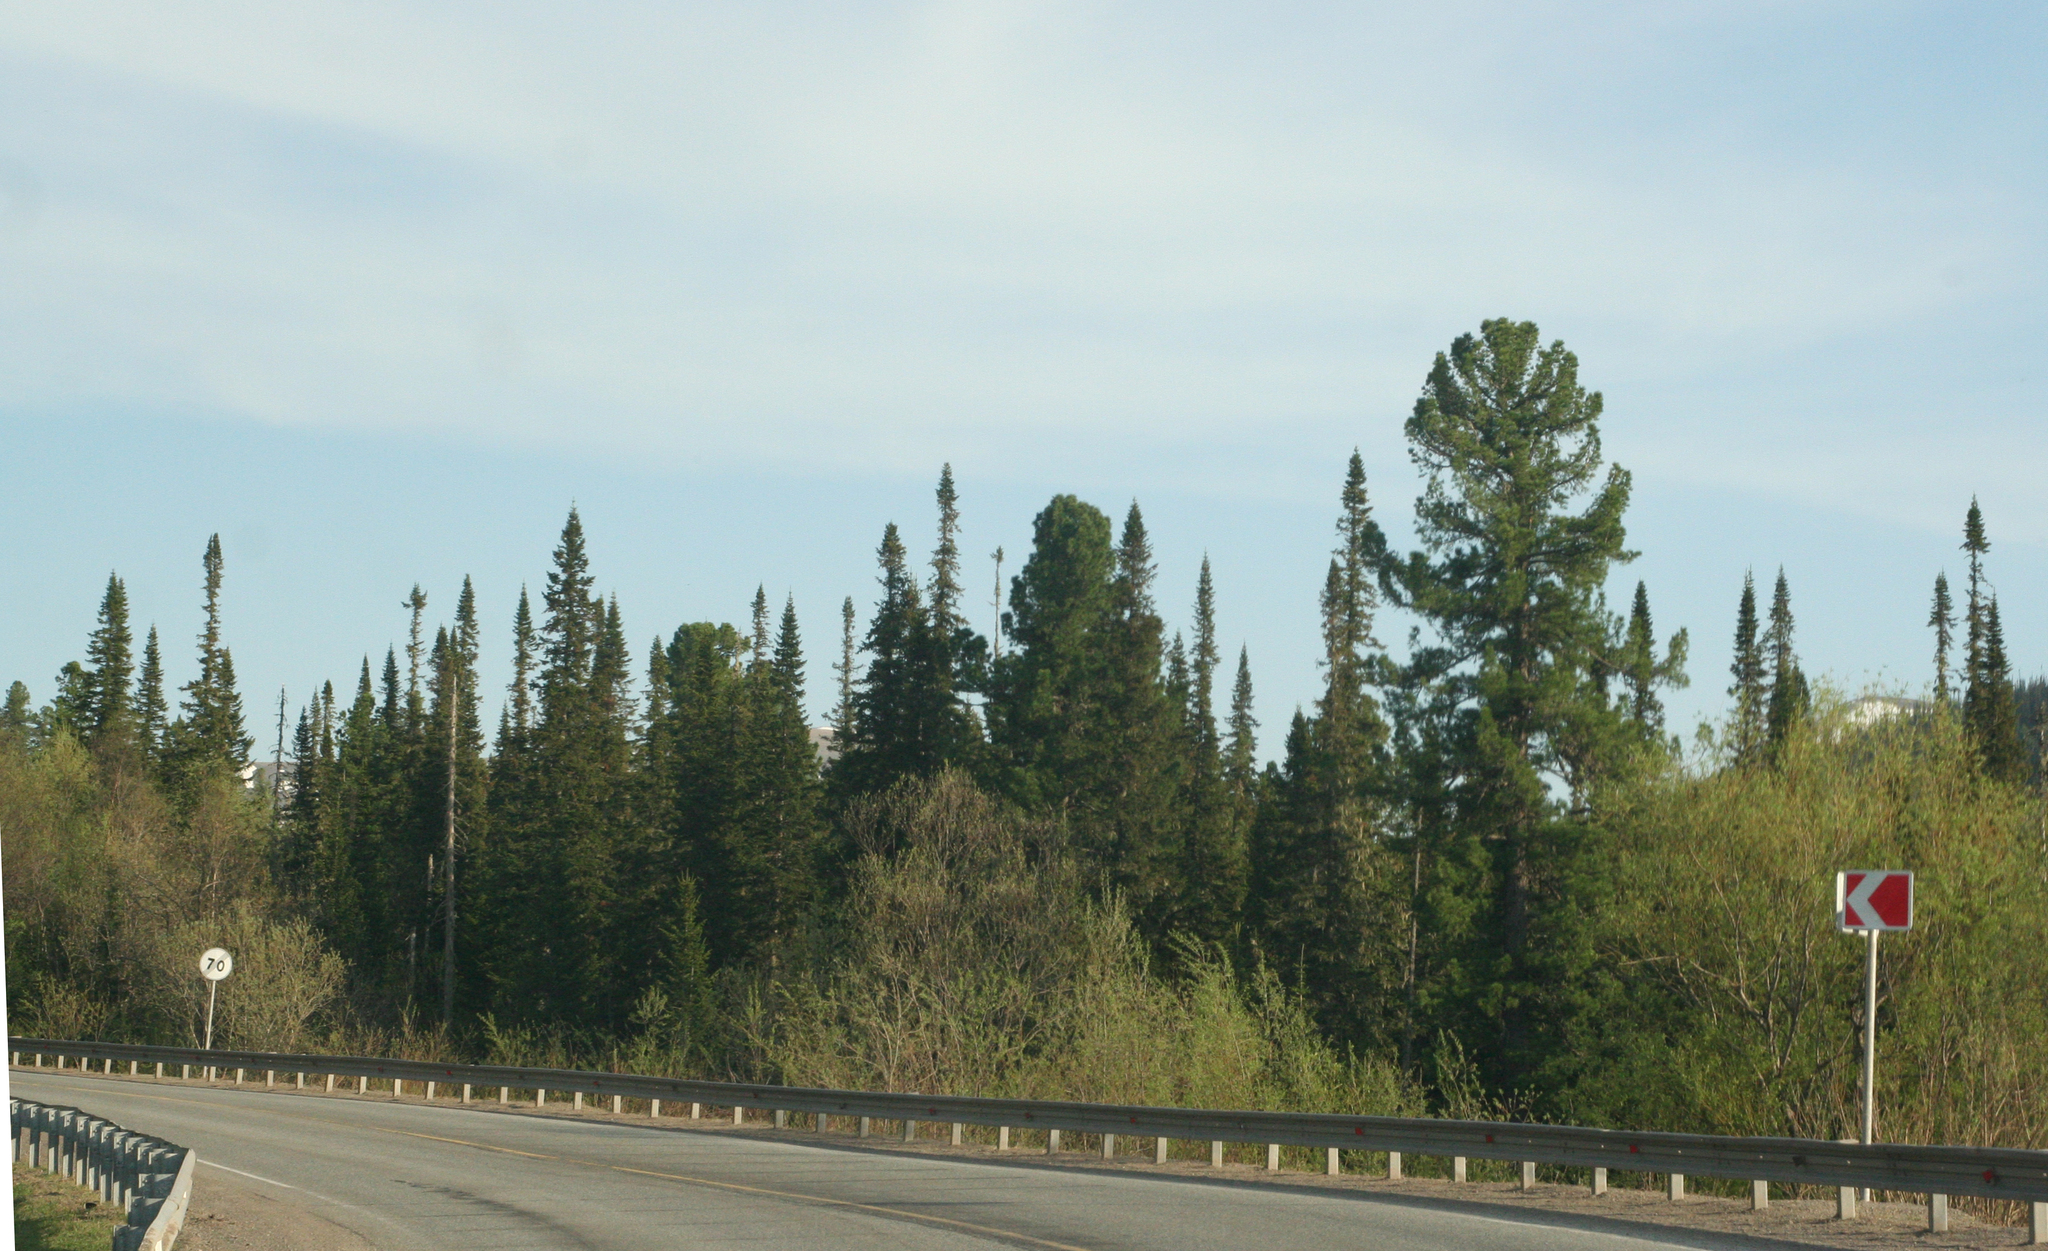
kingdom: Plantae
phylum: Tracheophyta
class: Pinopsida
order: Pinales
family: Pinaceae
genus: Pinus
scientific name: Pinus sibirica
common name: Siberian pine
